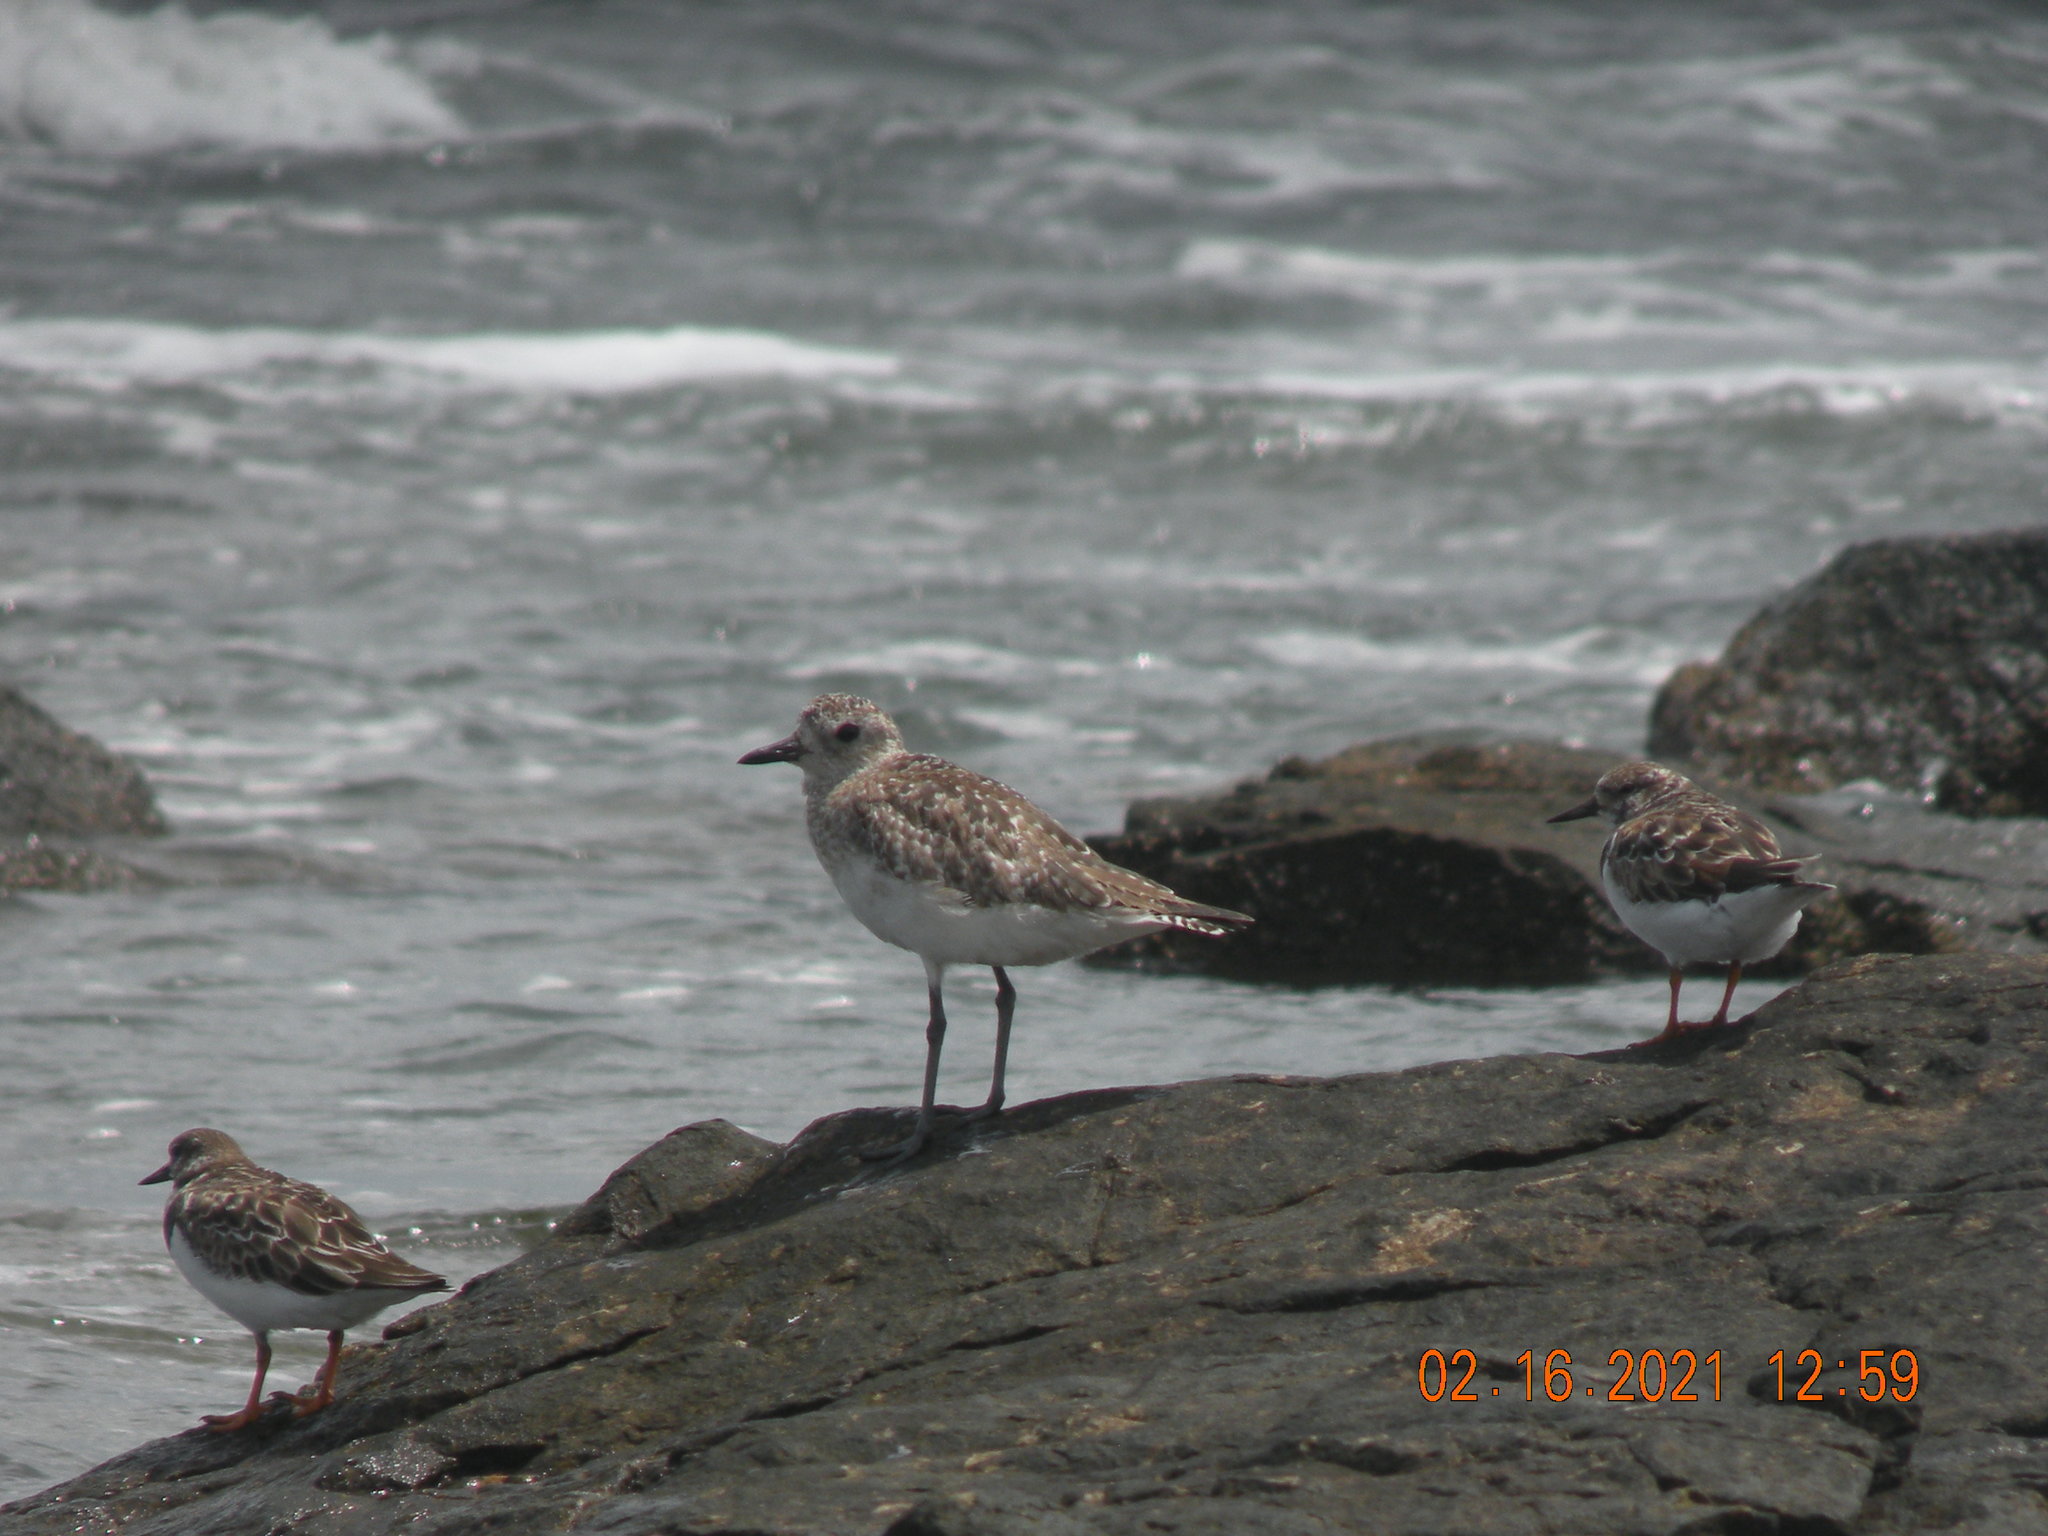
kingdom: Animalia
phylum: Chordata
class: Aves
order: Charadriiformes
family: Charadriidae
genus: Pluvialis
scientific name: Pluvialis squatarola
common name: Grey plover
